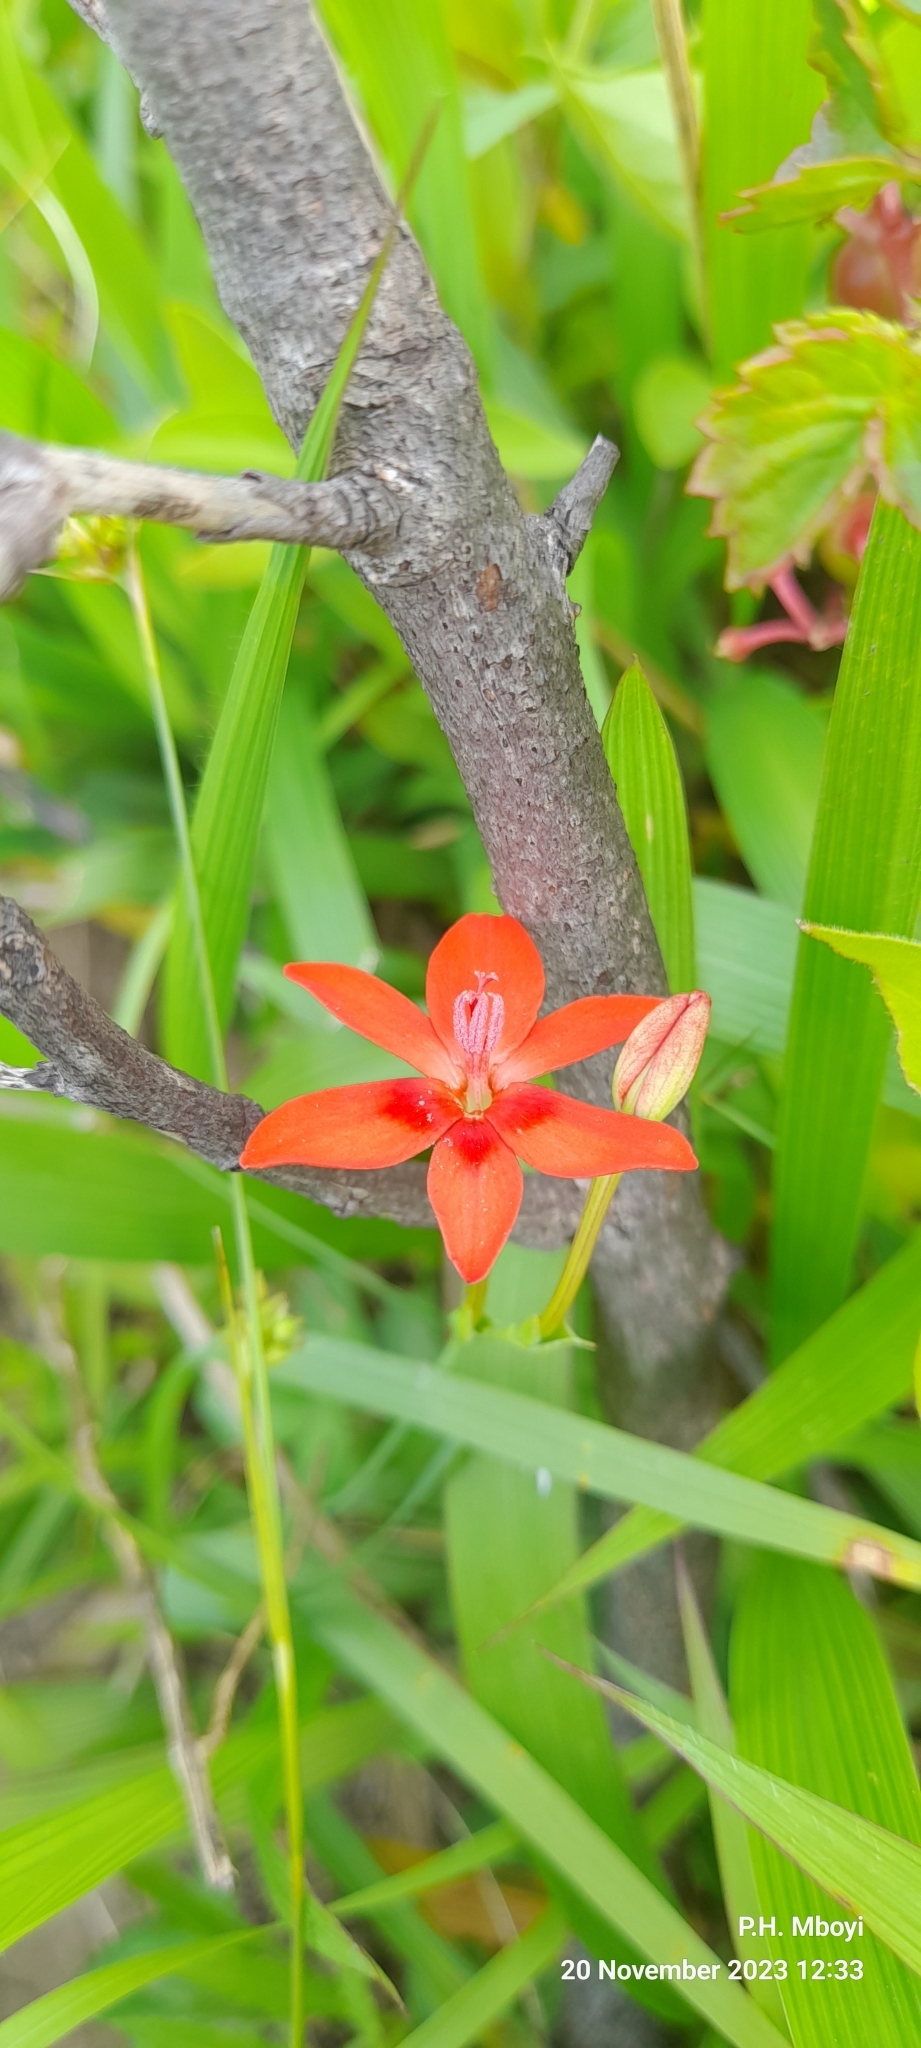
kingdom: Plantae
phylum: Tracheophyta
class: Liliopsida
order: Asparagales
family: Iridaceae
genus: Freesia
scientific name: Freesia laxa
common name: False freesia
